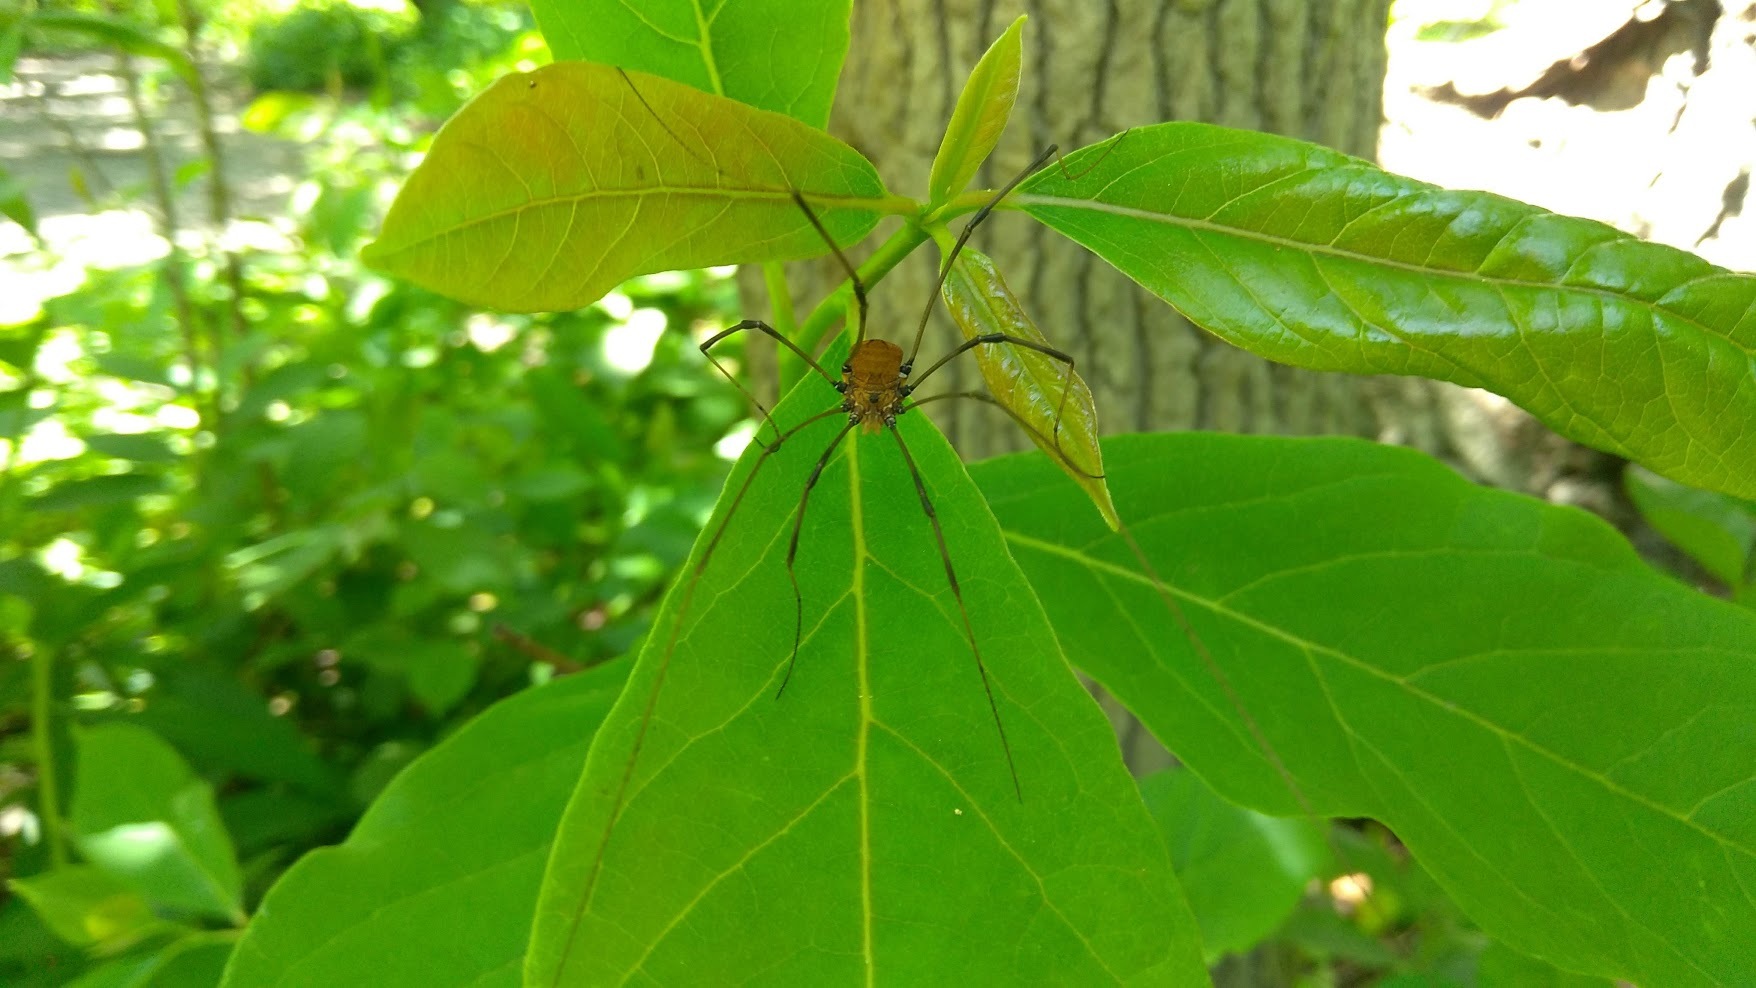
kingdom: Animalia
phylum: Arthropoda
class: Arachnida
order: Opiliones
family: Sclerosomatidae
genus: Leiobunum
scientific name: Leiobunum verrucosum
